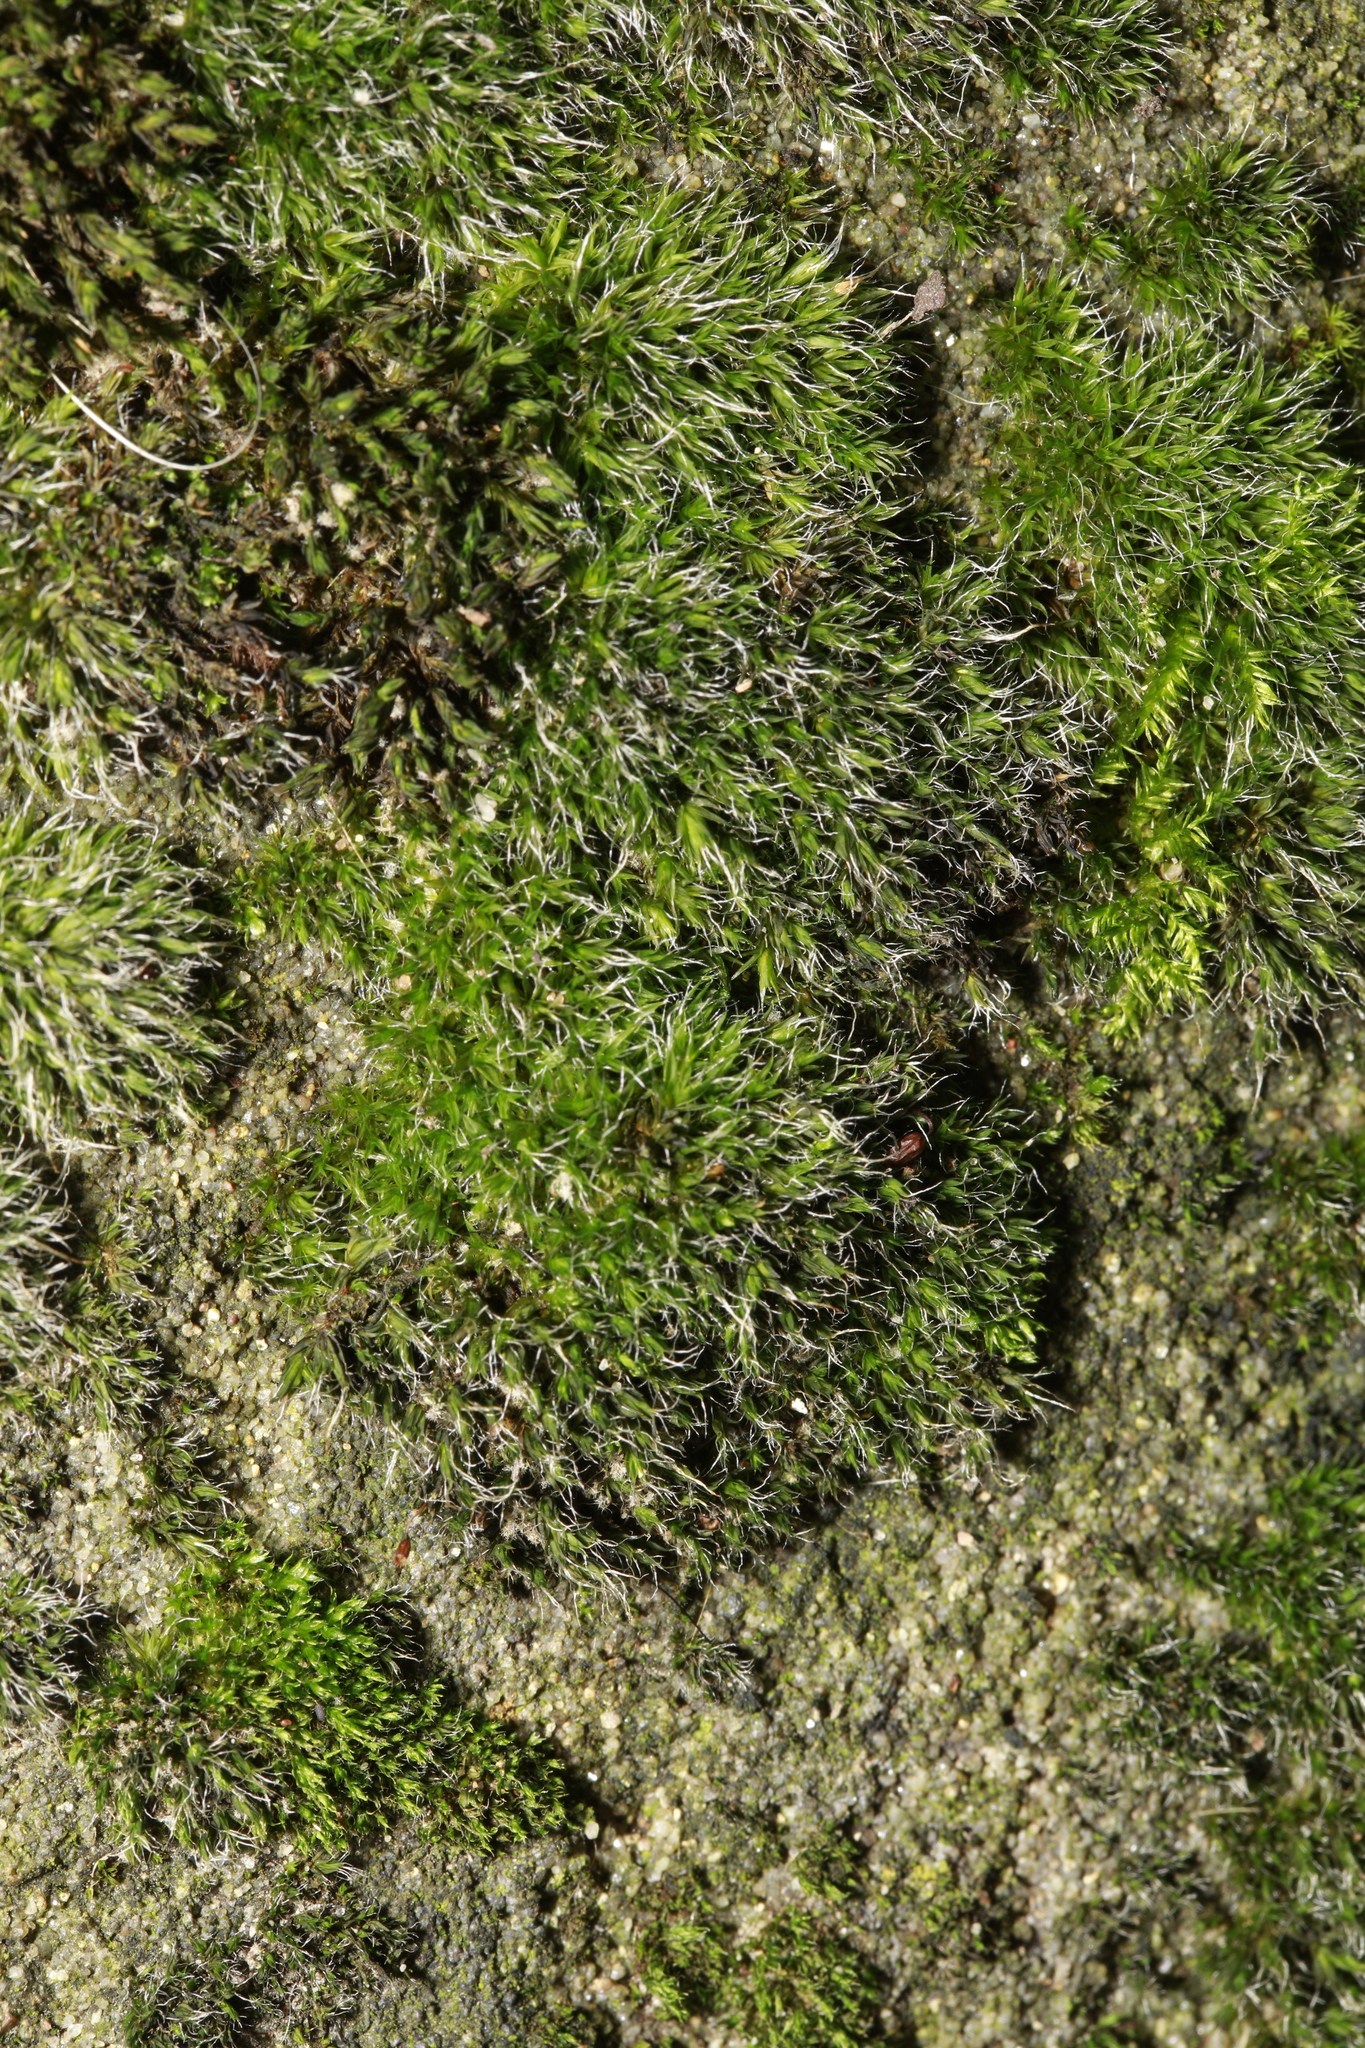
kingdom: Plantae
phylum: Bryophyta
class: Bryopsida
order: Grimmiales
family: Grimmiaceae
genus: Grimmia
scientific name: Grimmia pulvinata
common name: Grey-cushioned grimmia
